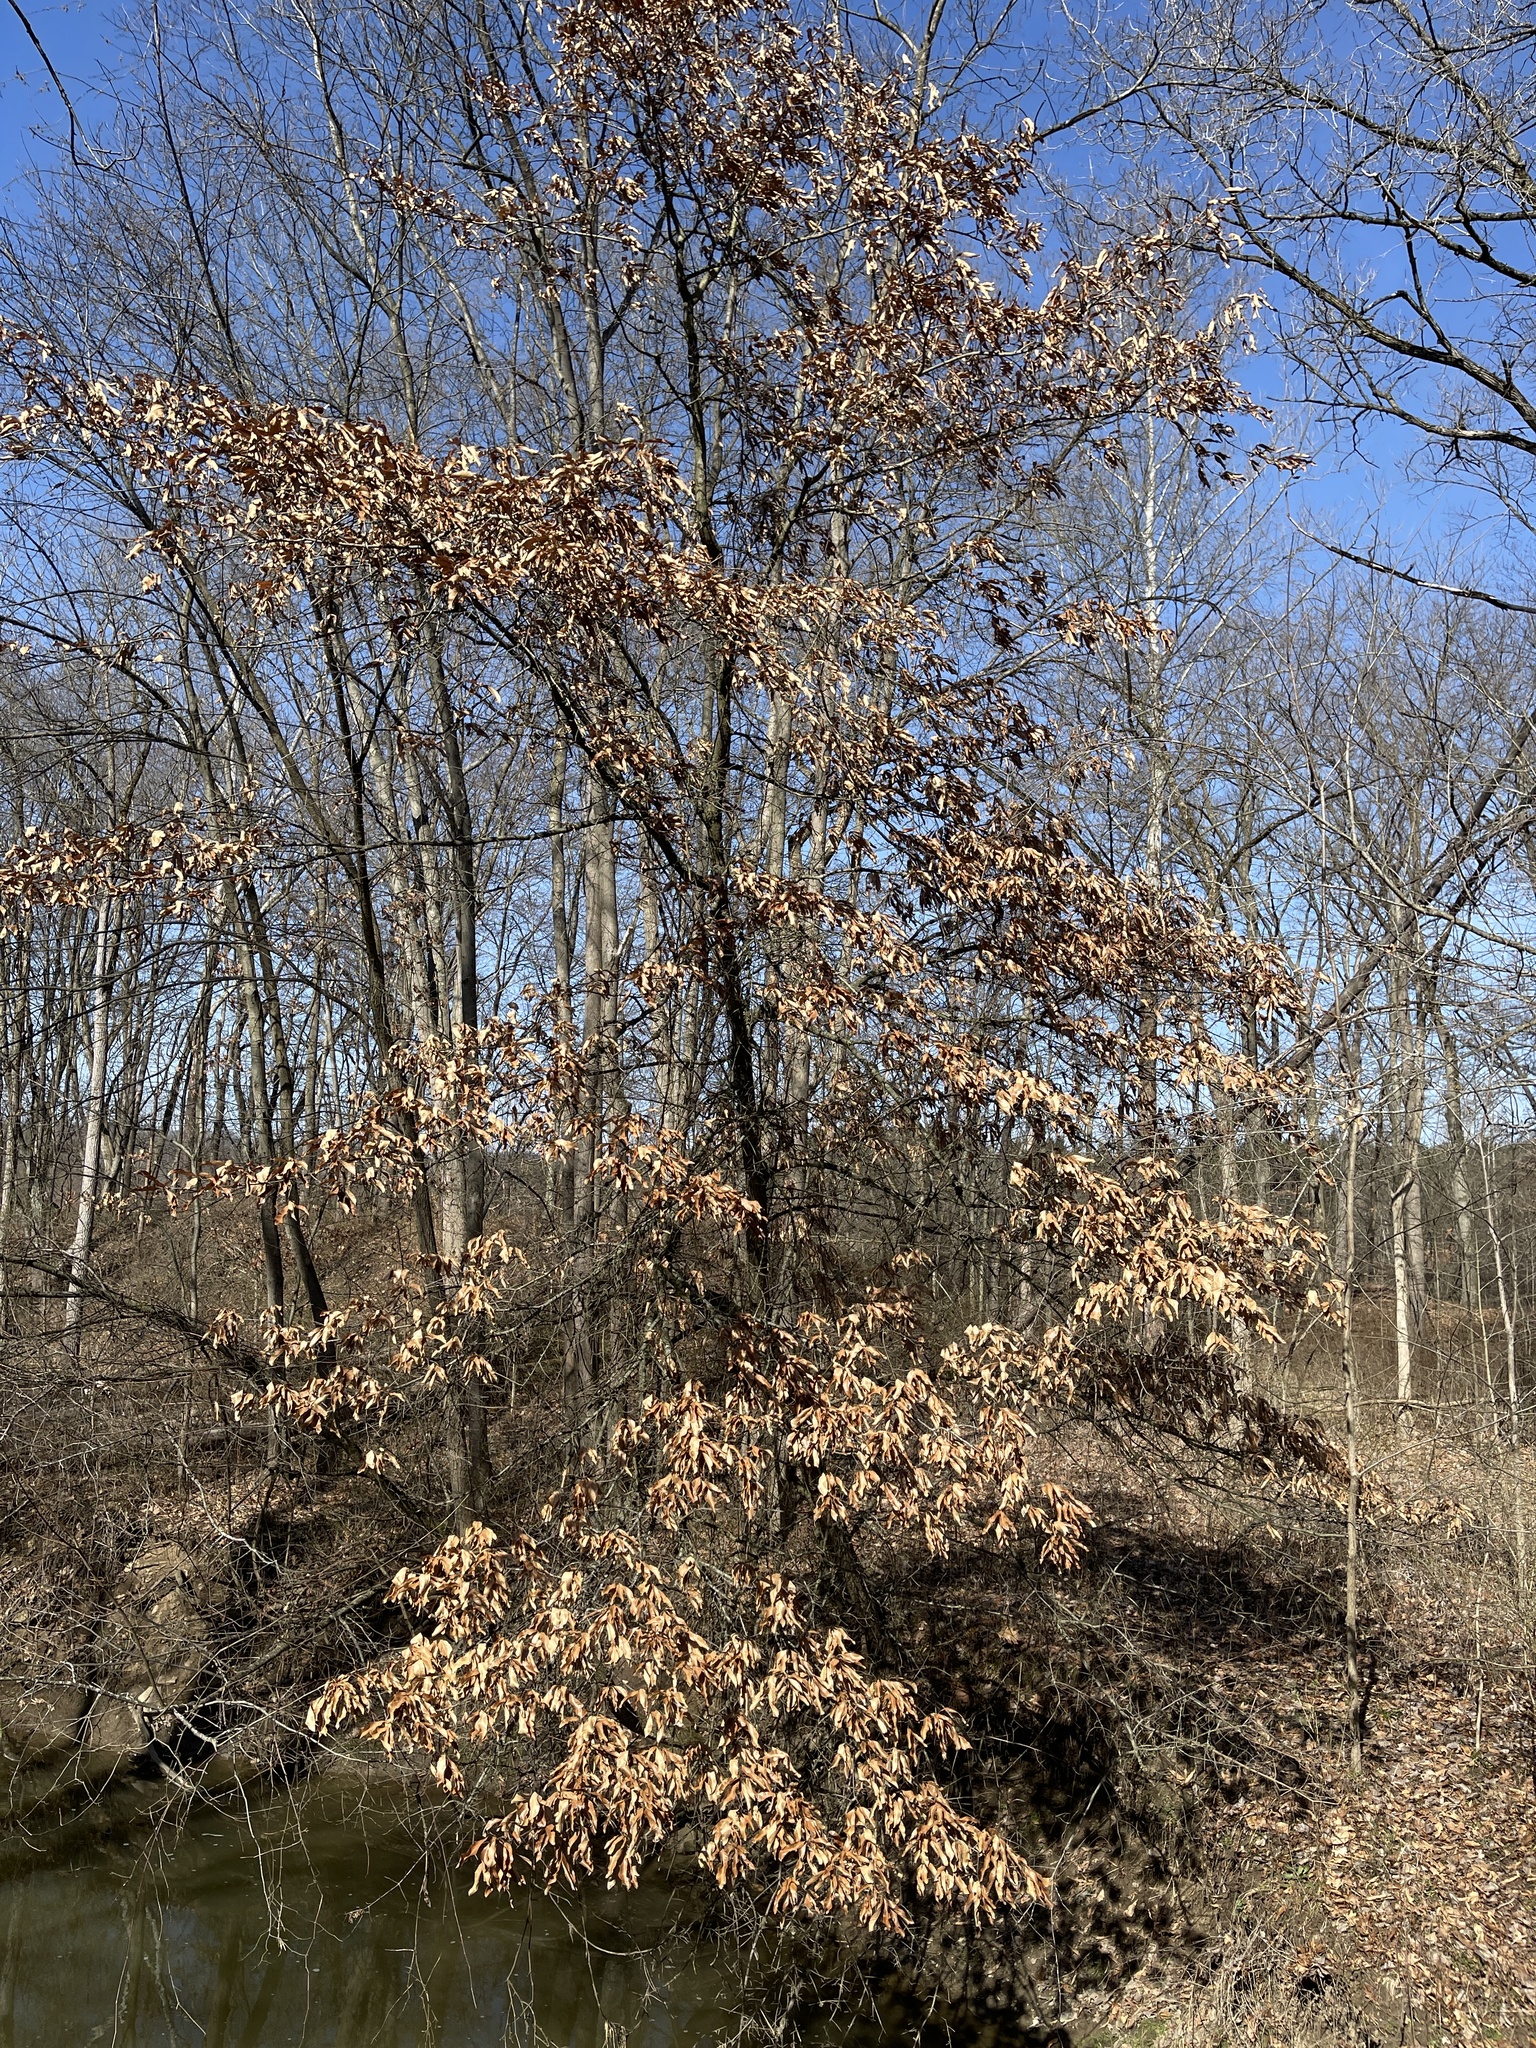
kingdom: Plantae
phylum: Tracheophyta
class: Magnoliopsida
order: Fagales
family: Fagaceae
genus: Quercus
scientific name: Quercus imbricaria
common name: Shingle oak
